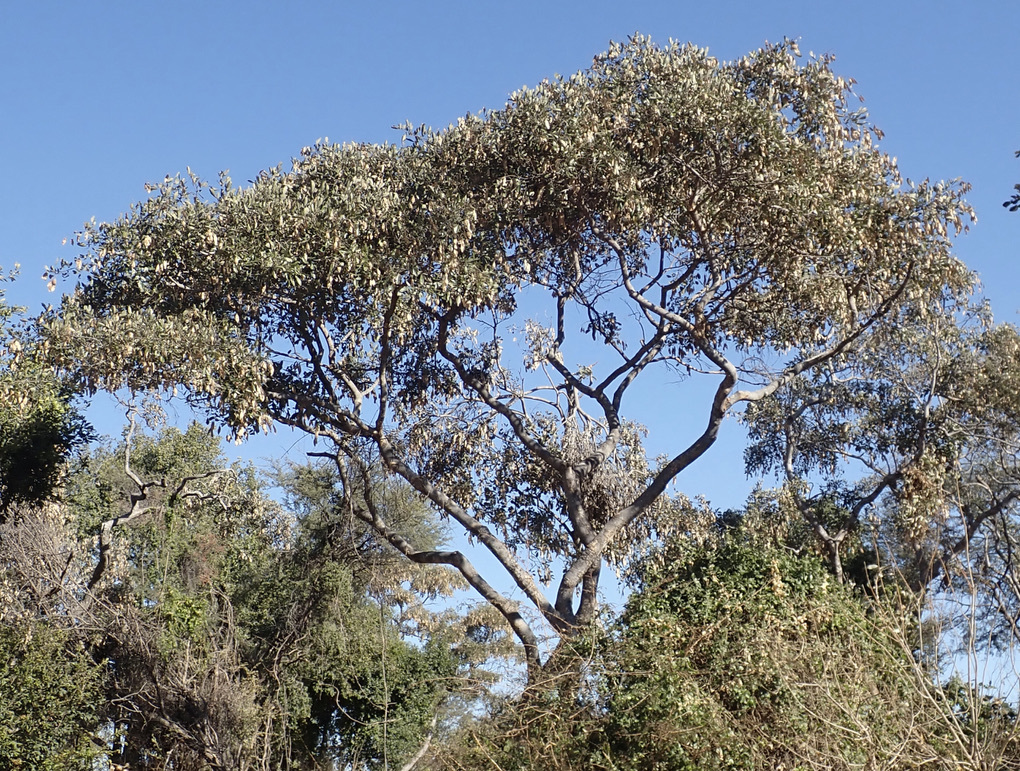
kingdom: Plantae
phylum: Tracheophyta
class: Magnoliopsida
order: Fabales
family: Fabaceae
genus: Philenoptera
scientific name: Philenoptera violacea
